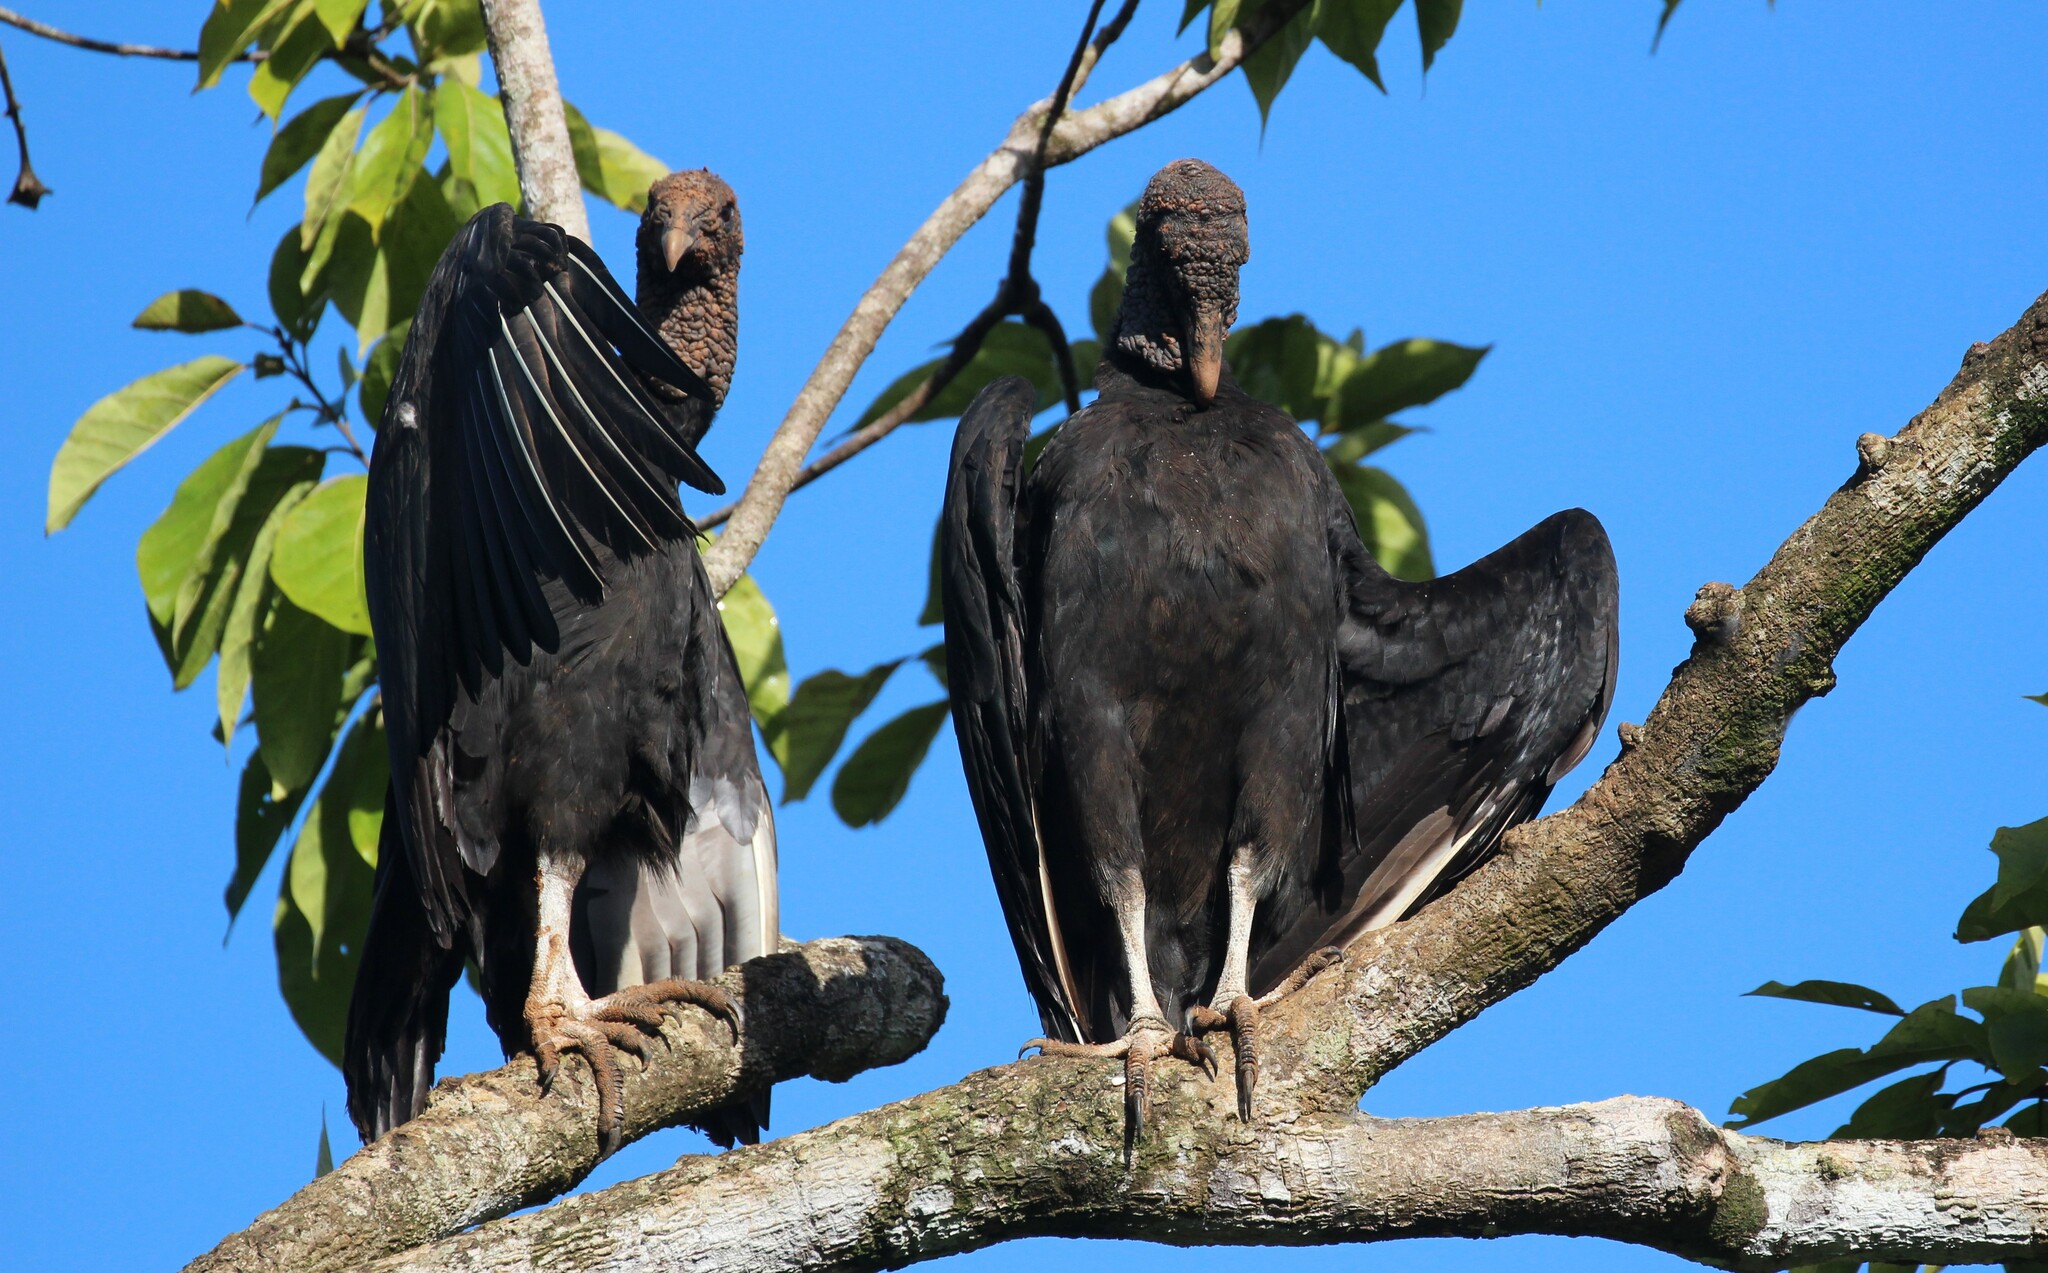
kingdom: Animalia
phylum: Chordata
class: Aves
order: Accipitriformes
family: Cathartidae
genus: Coragyps
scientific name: Coragyps atratus
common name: Black vulture
